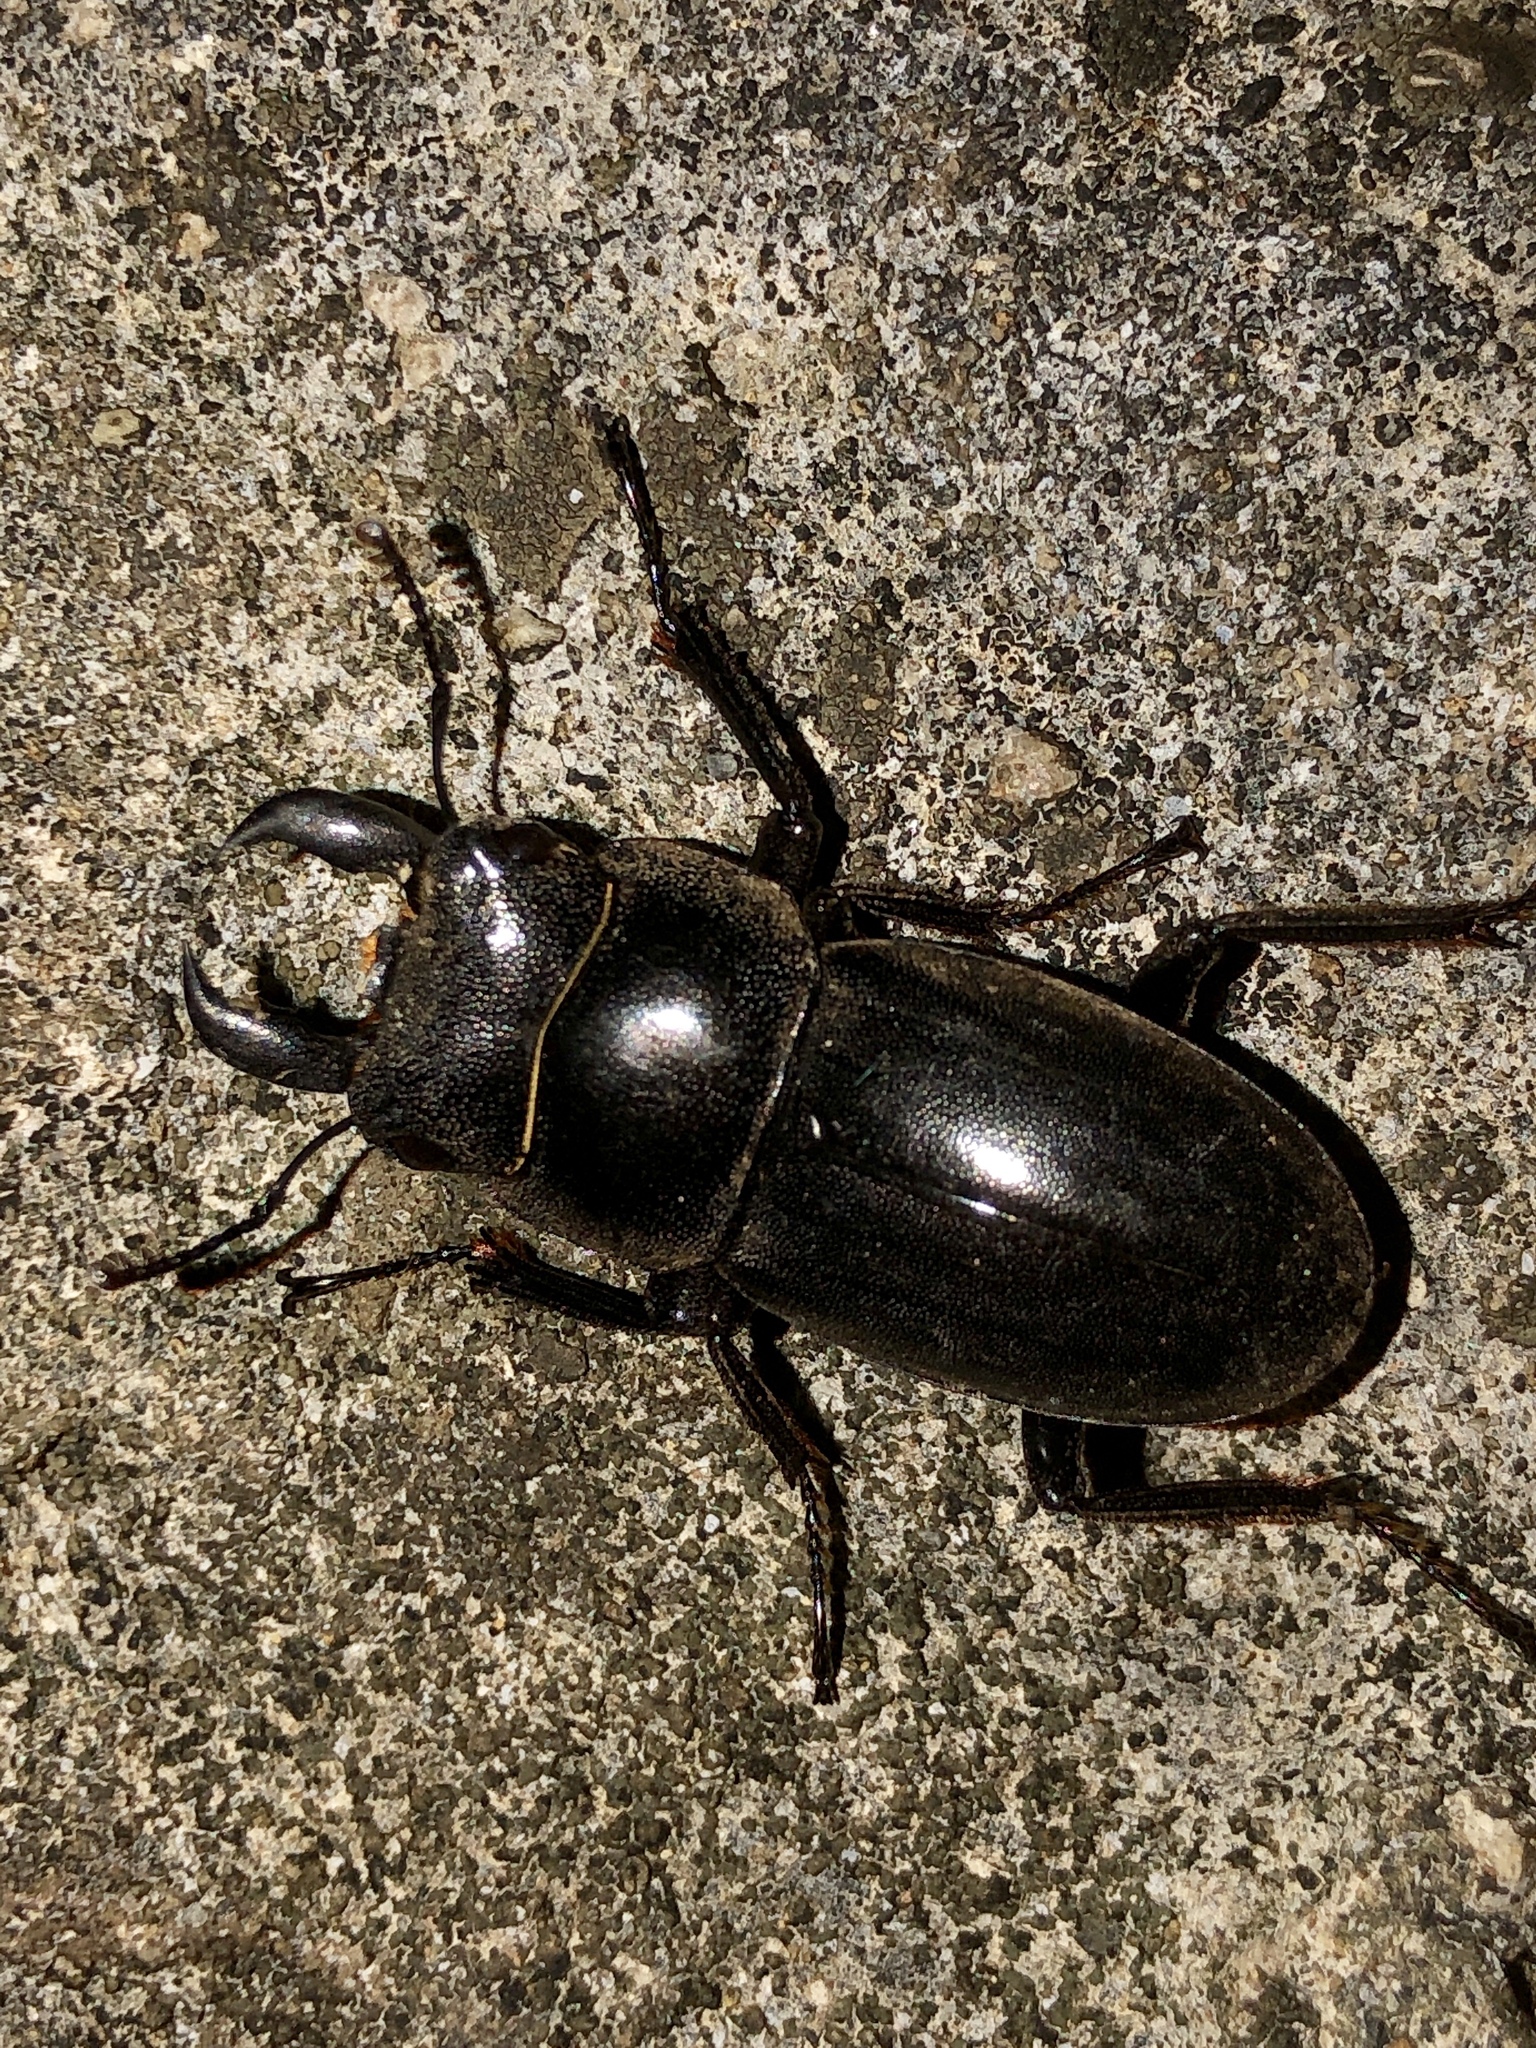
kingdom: Animalia
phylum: Arthropoda
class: Insecta
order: Coleoptera
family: Lucanidae
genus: Serrognathus
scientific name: Serrognathus titanus
